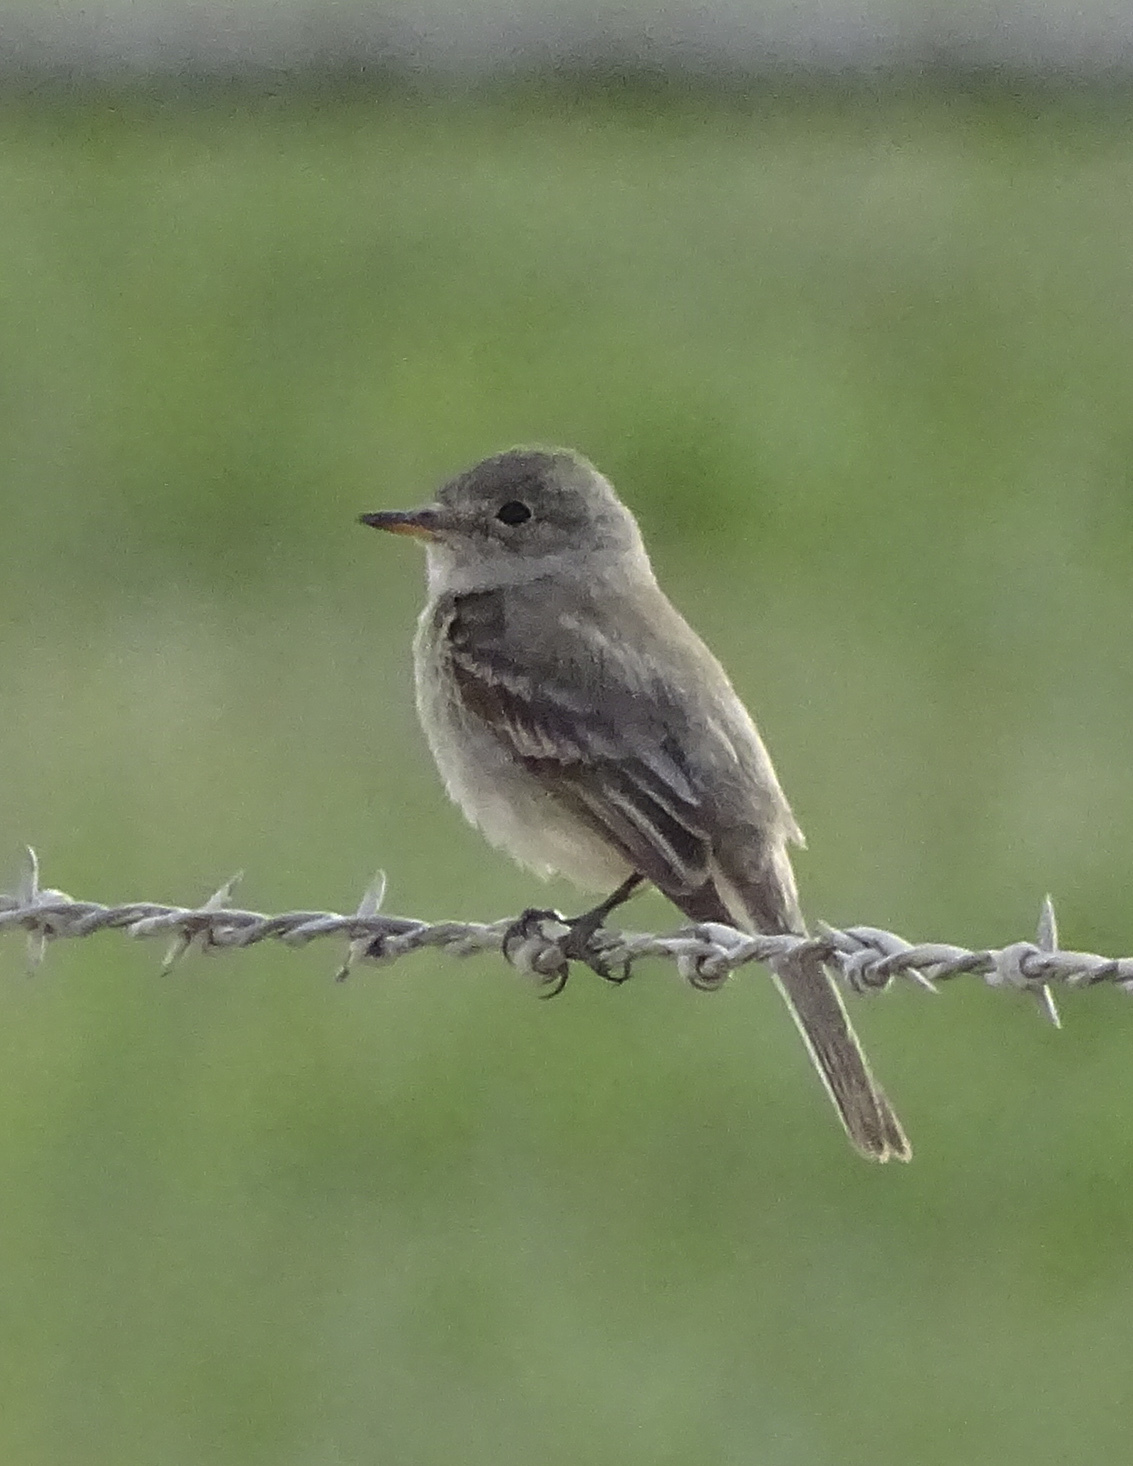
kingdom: Animalia
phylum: Chordata
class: Aves
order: Passeriformes
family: Tyrannidae
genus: Empidonax
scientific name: Empidonax wrightii
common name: Gray flycatcher
